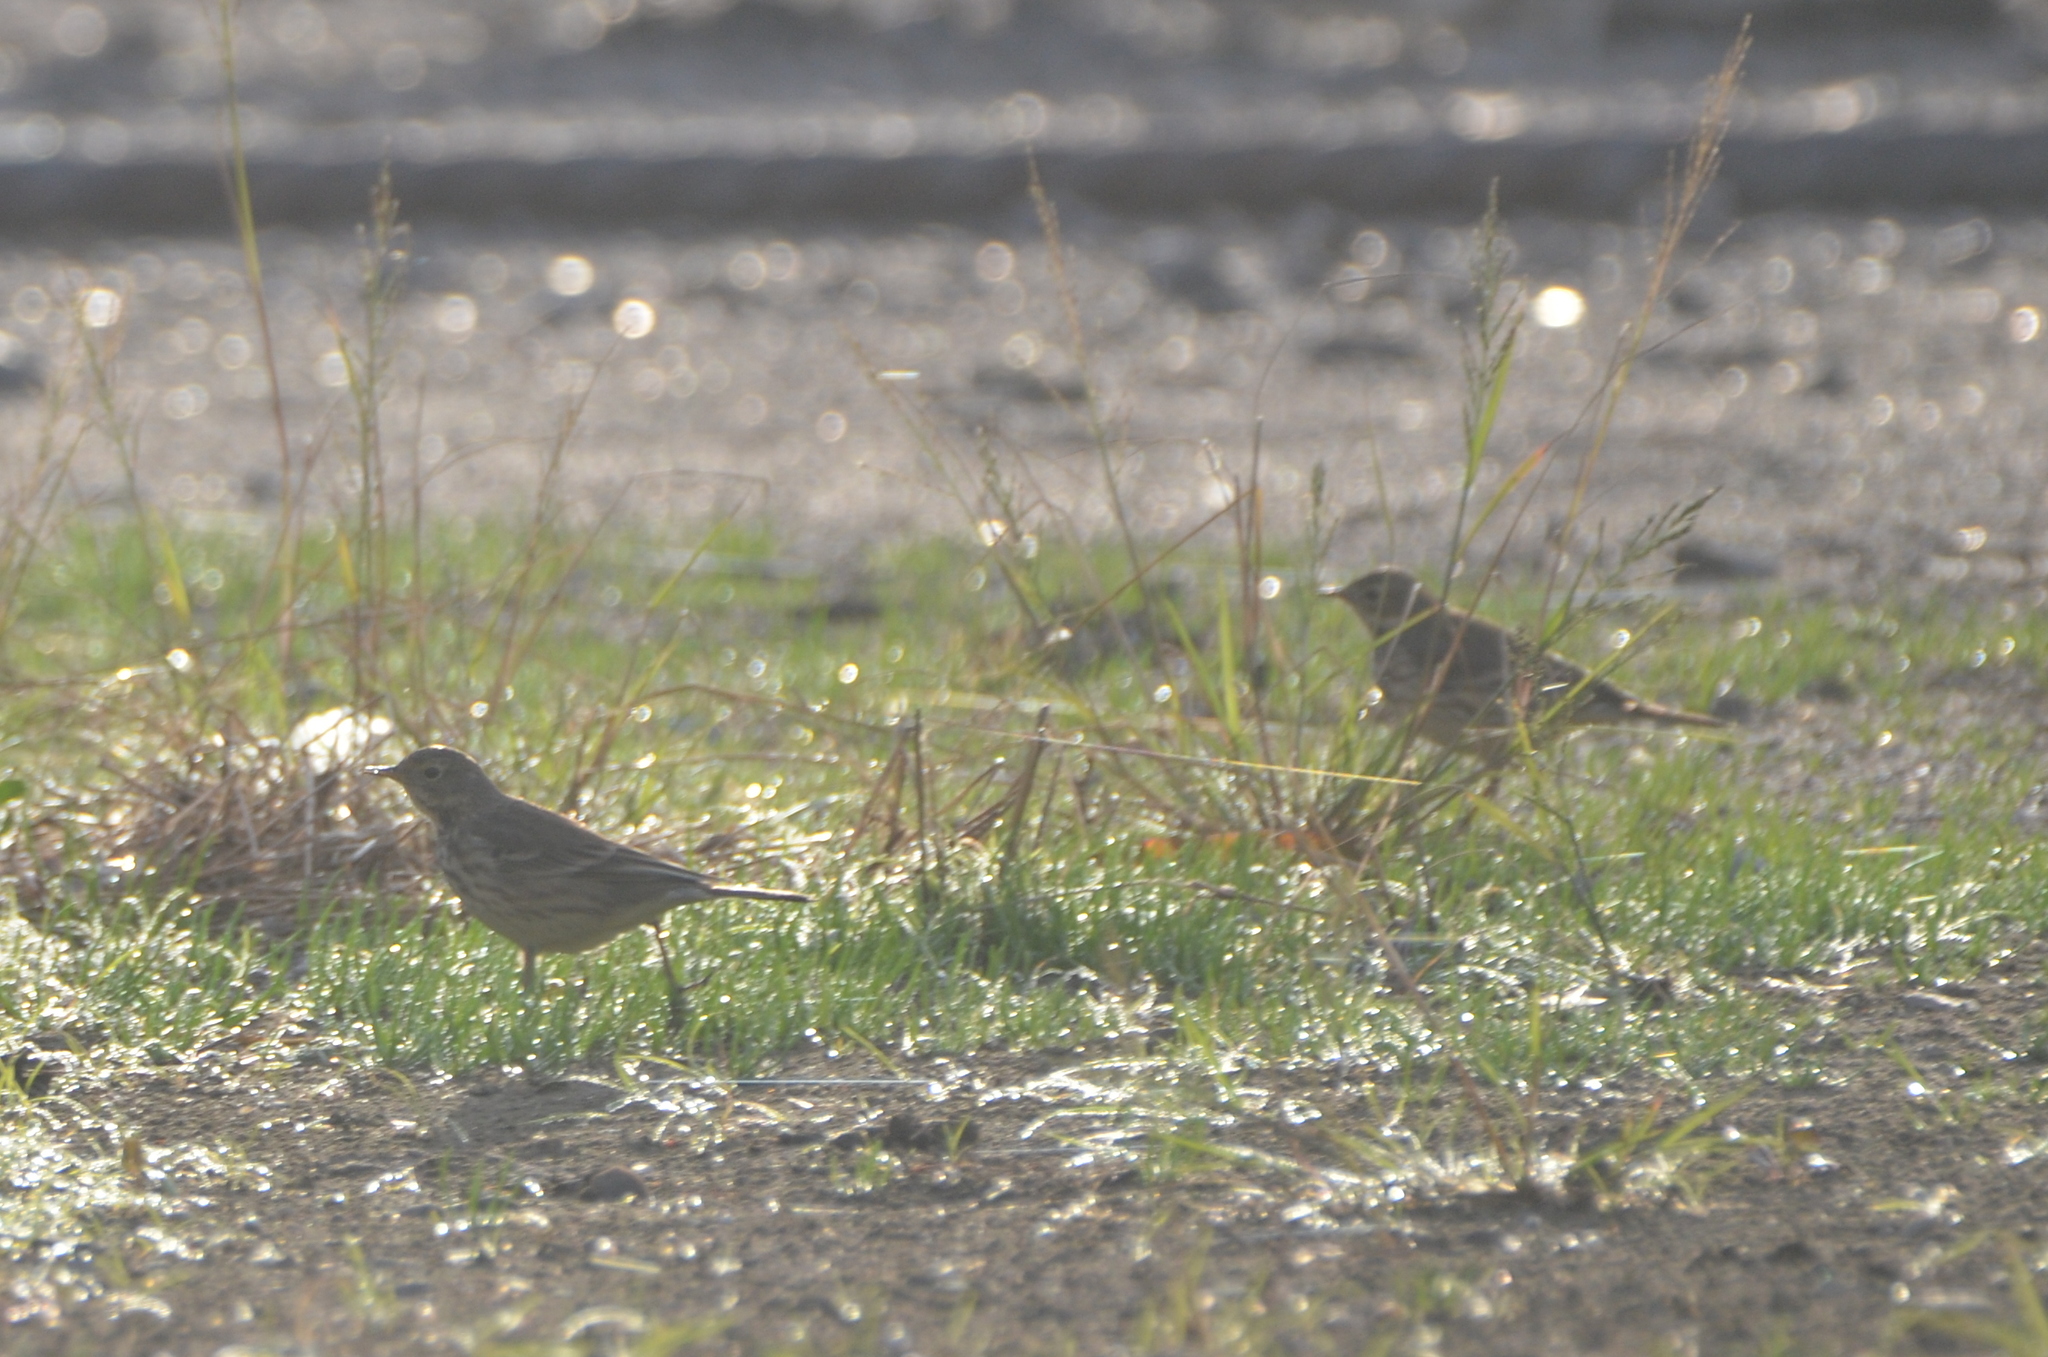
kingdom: Animalia
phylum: Chordata
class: Aves
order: Passeriformes
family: Motacillidae
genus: Anthus
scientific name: Anthus rubescens
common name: Buff-bellied pipit
